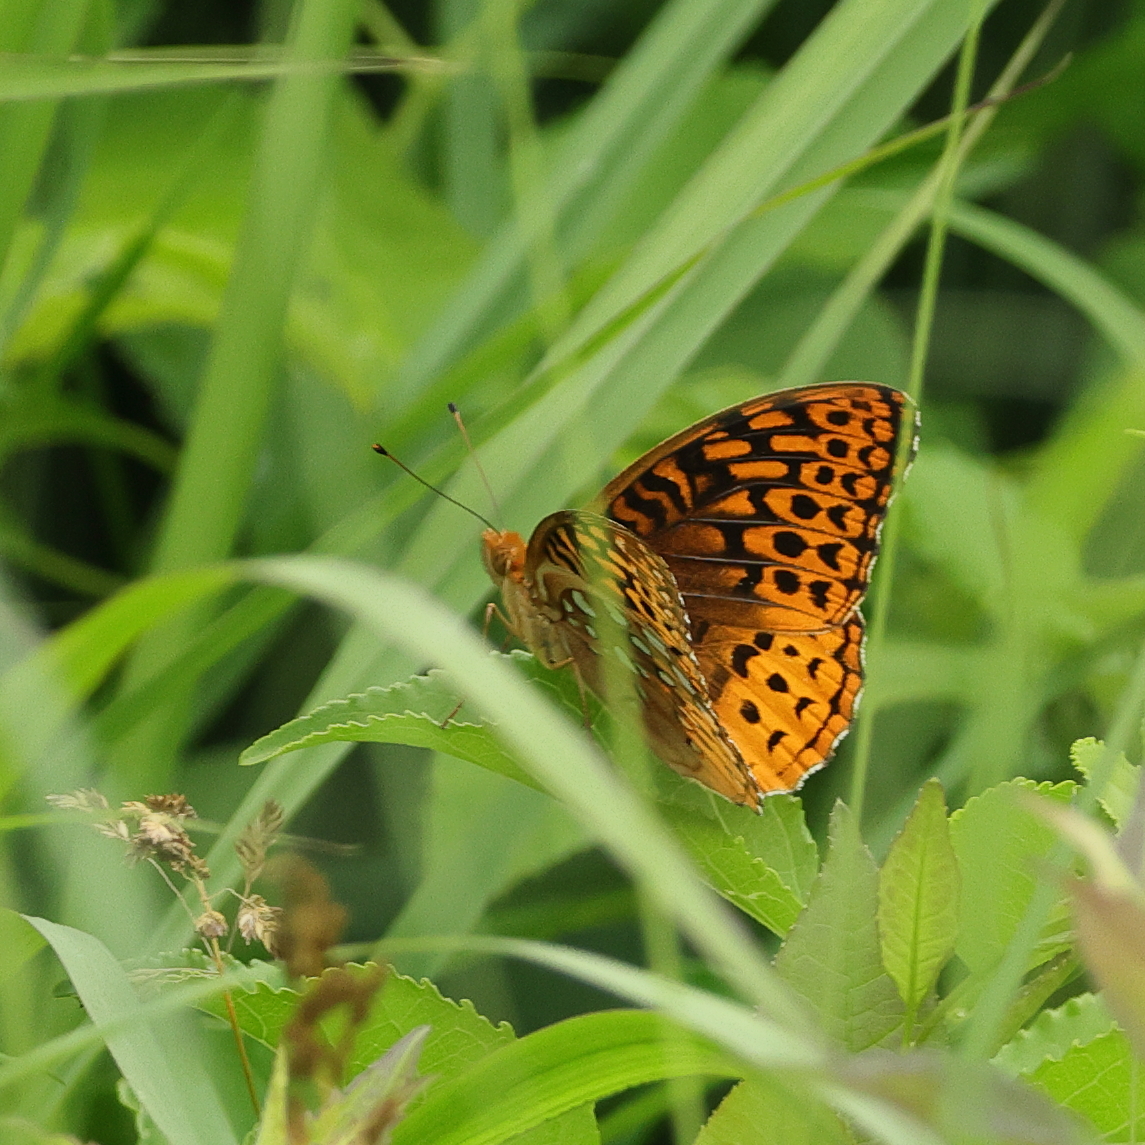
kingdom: Animalia
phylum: Arthropoda
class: Insecta
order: Lepidoptera
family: Nymphalidae
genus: Speyeria
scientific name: Speyeria cybele
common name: Great spangled fritillary
